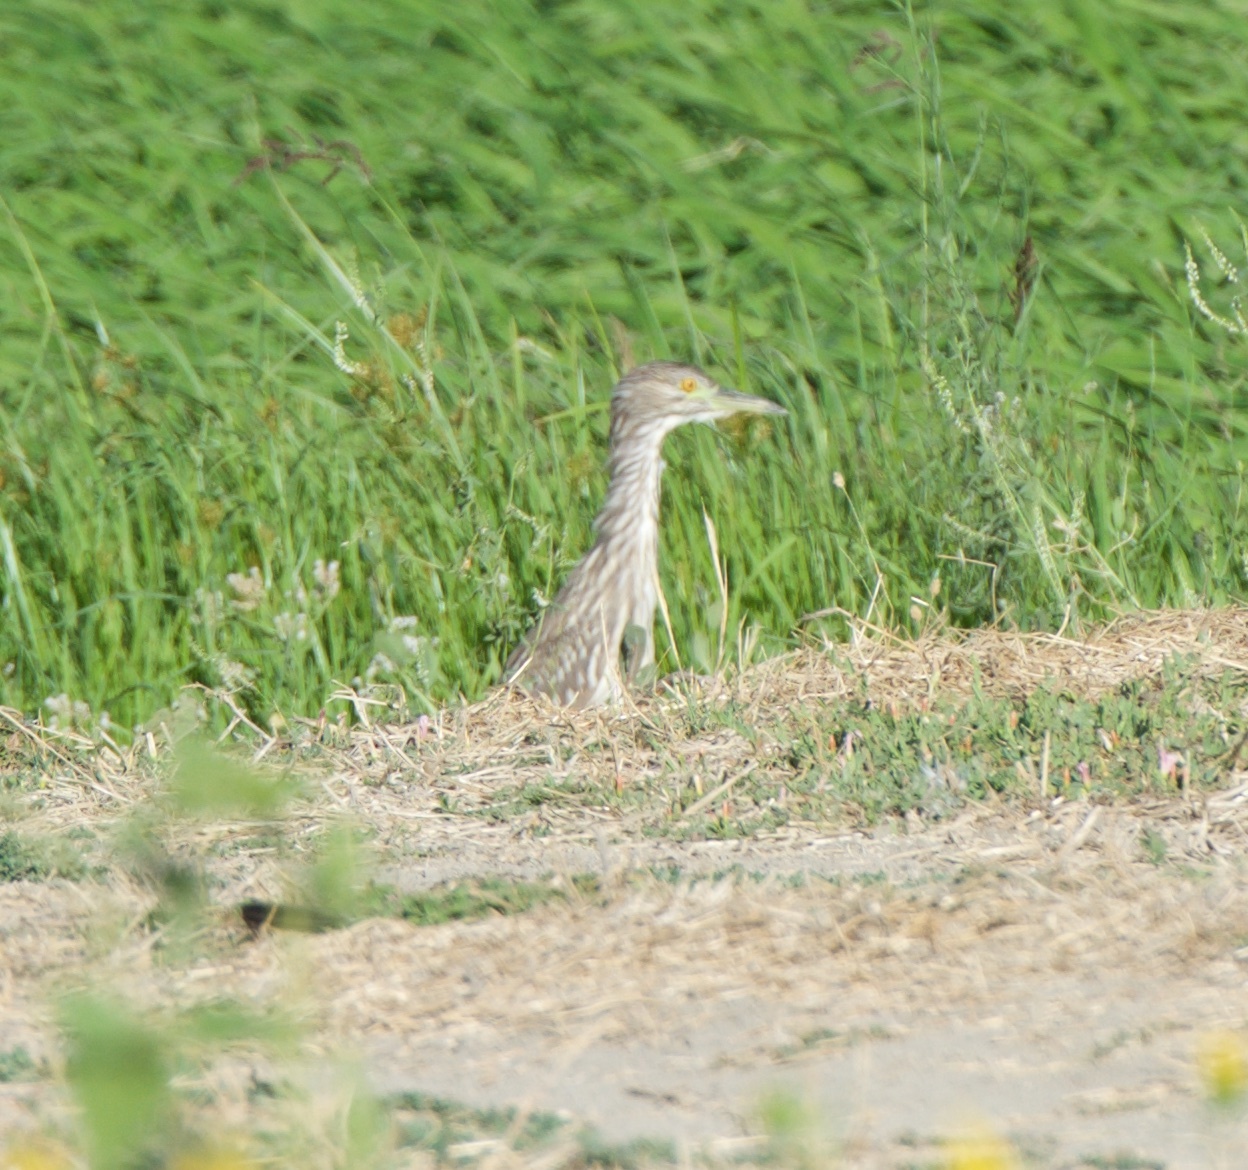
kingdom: Animalia
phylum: Chordata
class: Aves
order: Pelecaniformes
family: Ardeidae
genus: Nycticorax
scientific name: Nycticorax nycticorax
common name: Black-crowned night heron
